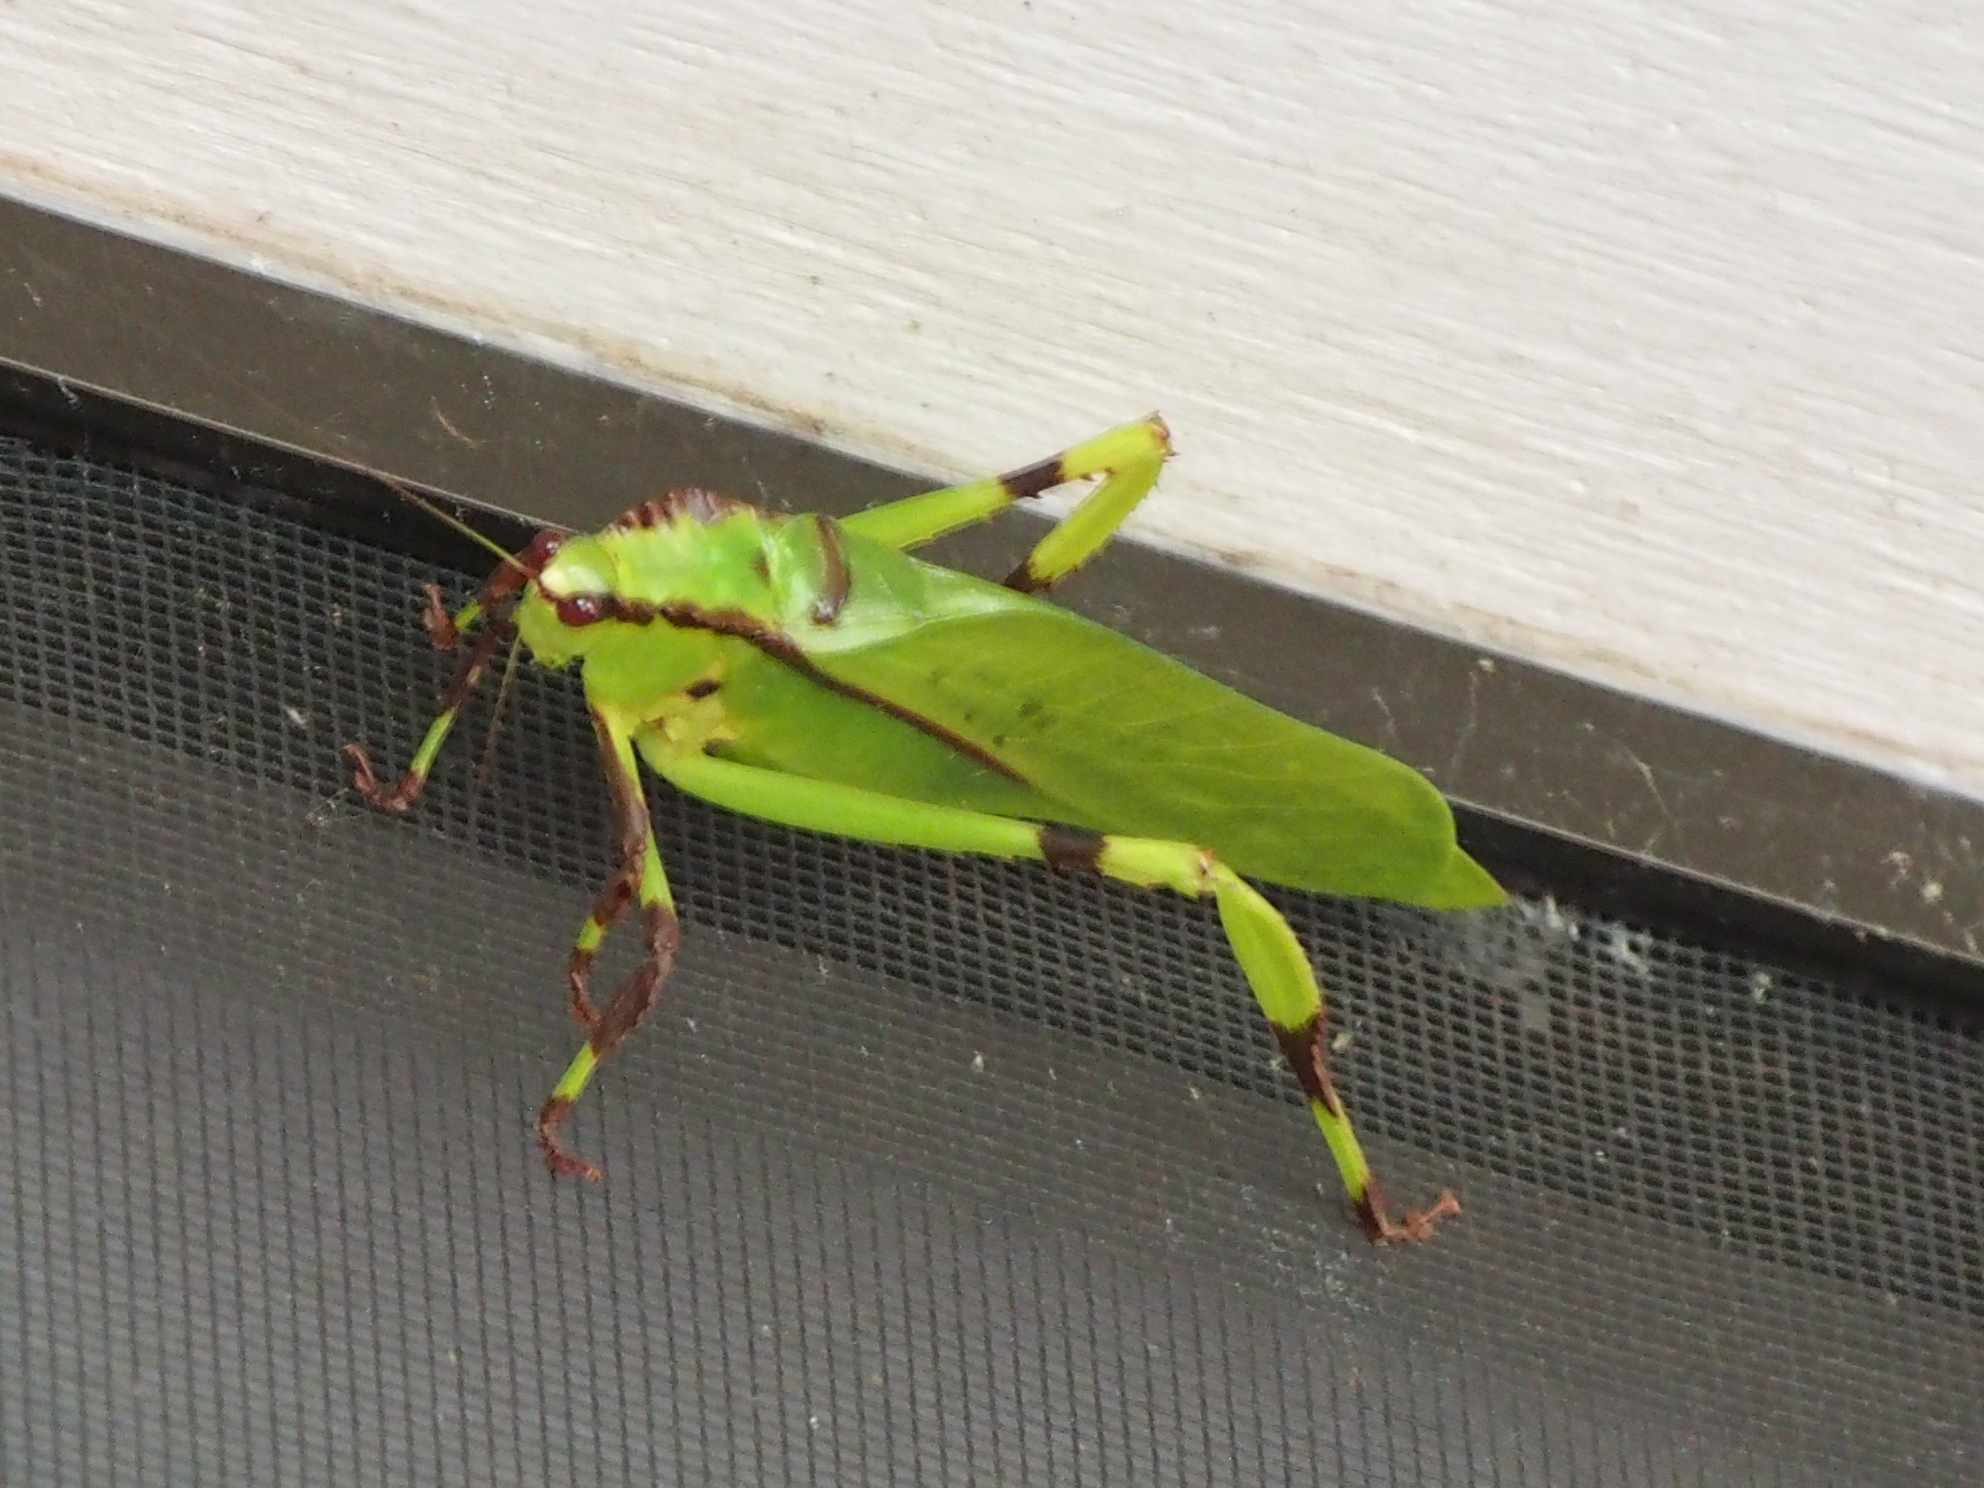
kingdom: Animalia
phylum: Arthropoda
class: Insecta
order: Orthoptera
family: Tettigoniidae
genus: Cnemidophyllum
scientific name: Cnemidophyllum eximium
